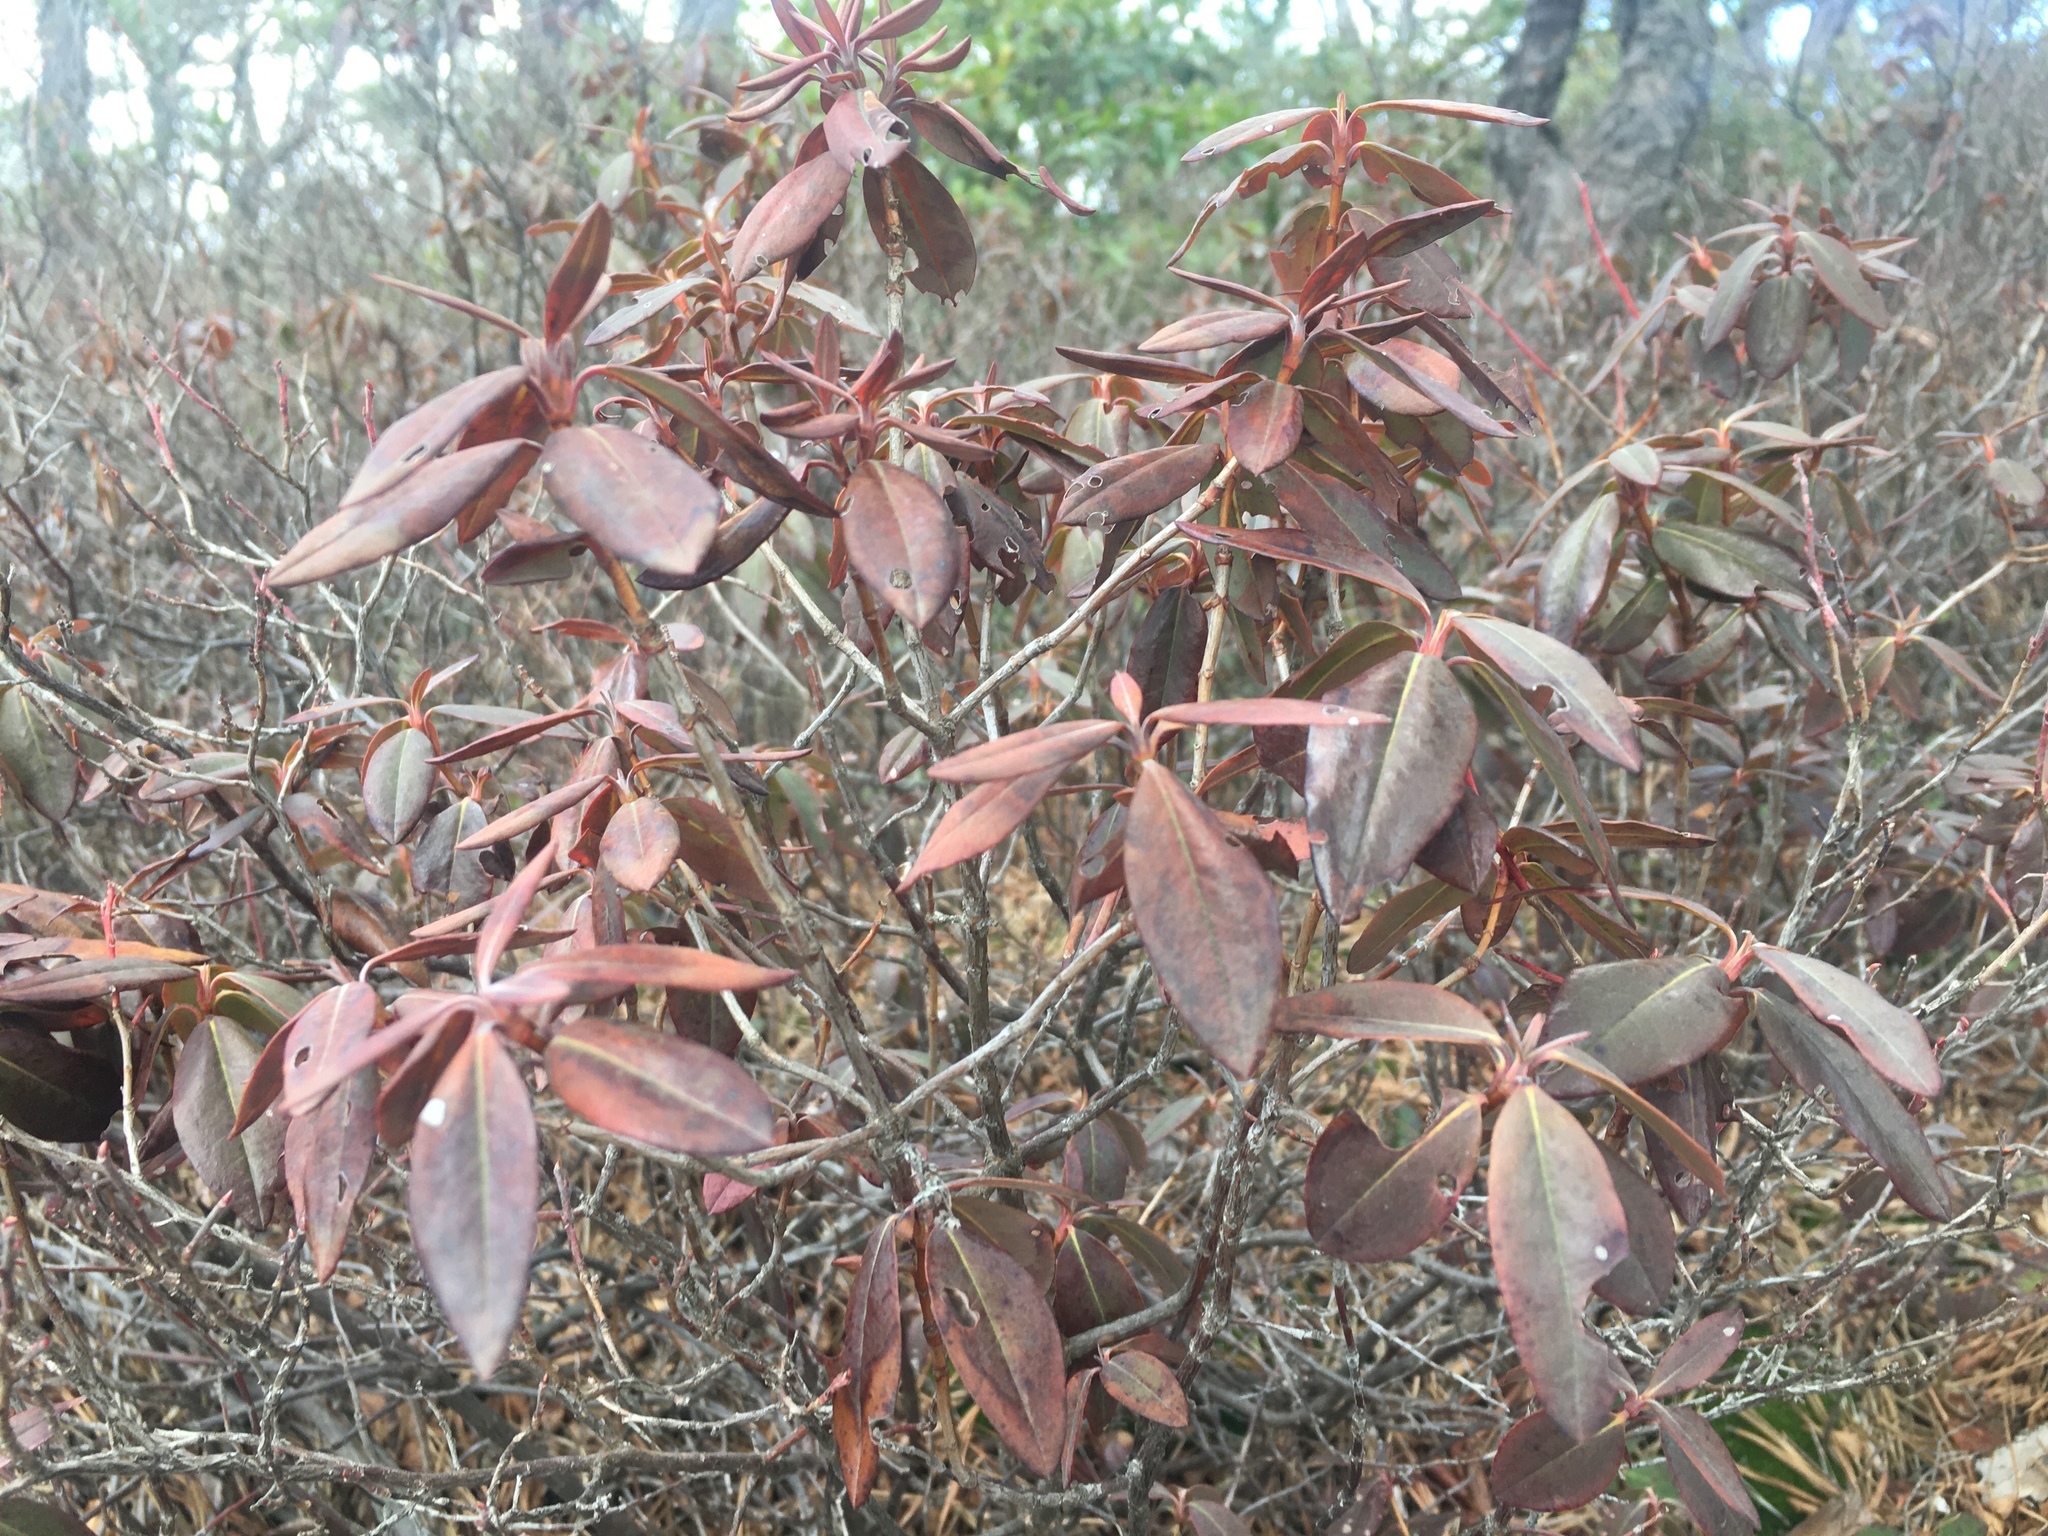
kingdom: Plantae
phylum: Tracheophyta
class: Magnoliopsida
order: Ericales
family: Ericaceae
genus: Kalmia
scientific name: Kalmia angustifolia
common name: Sheep-laurel
